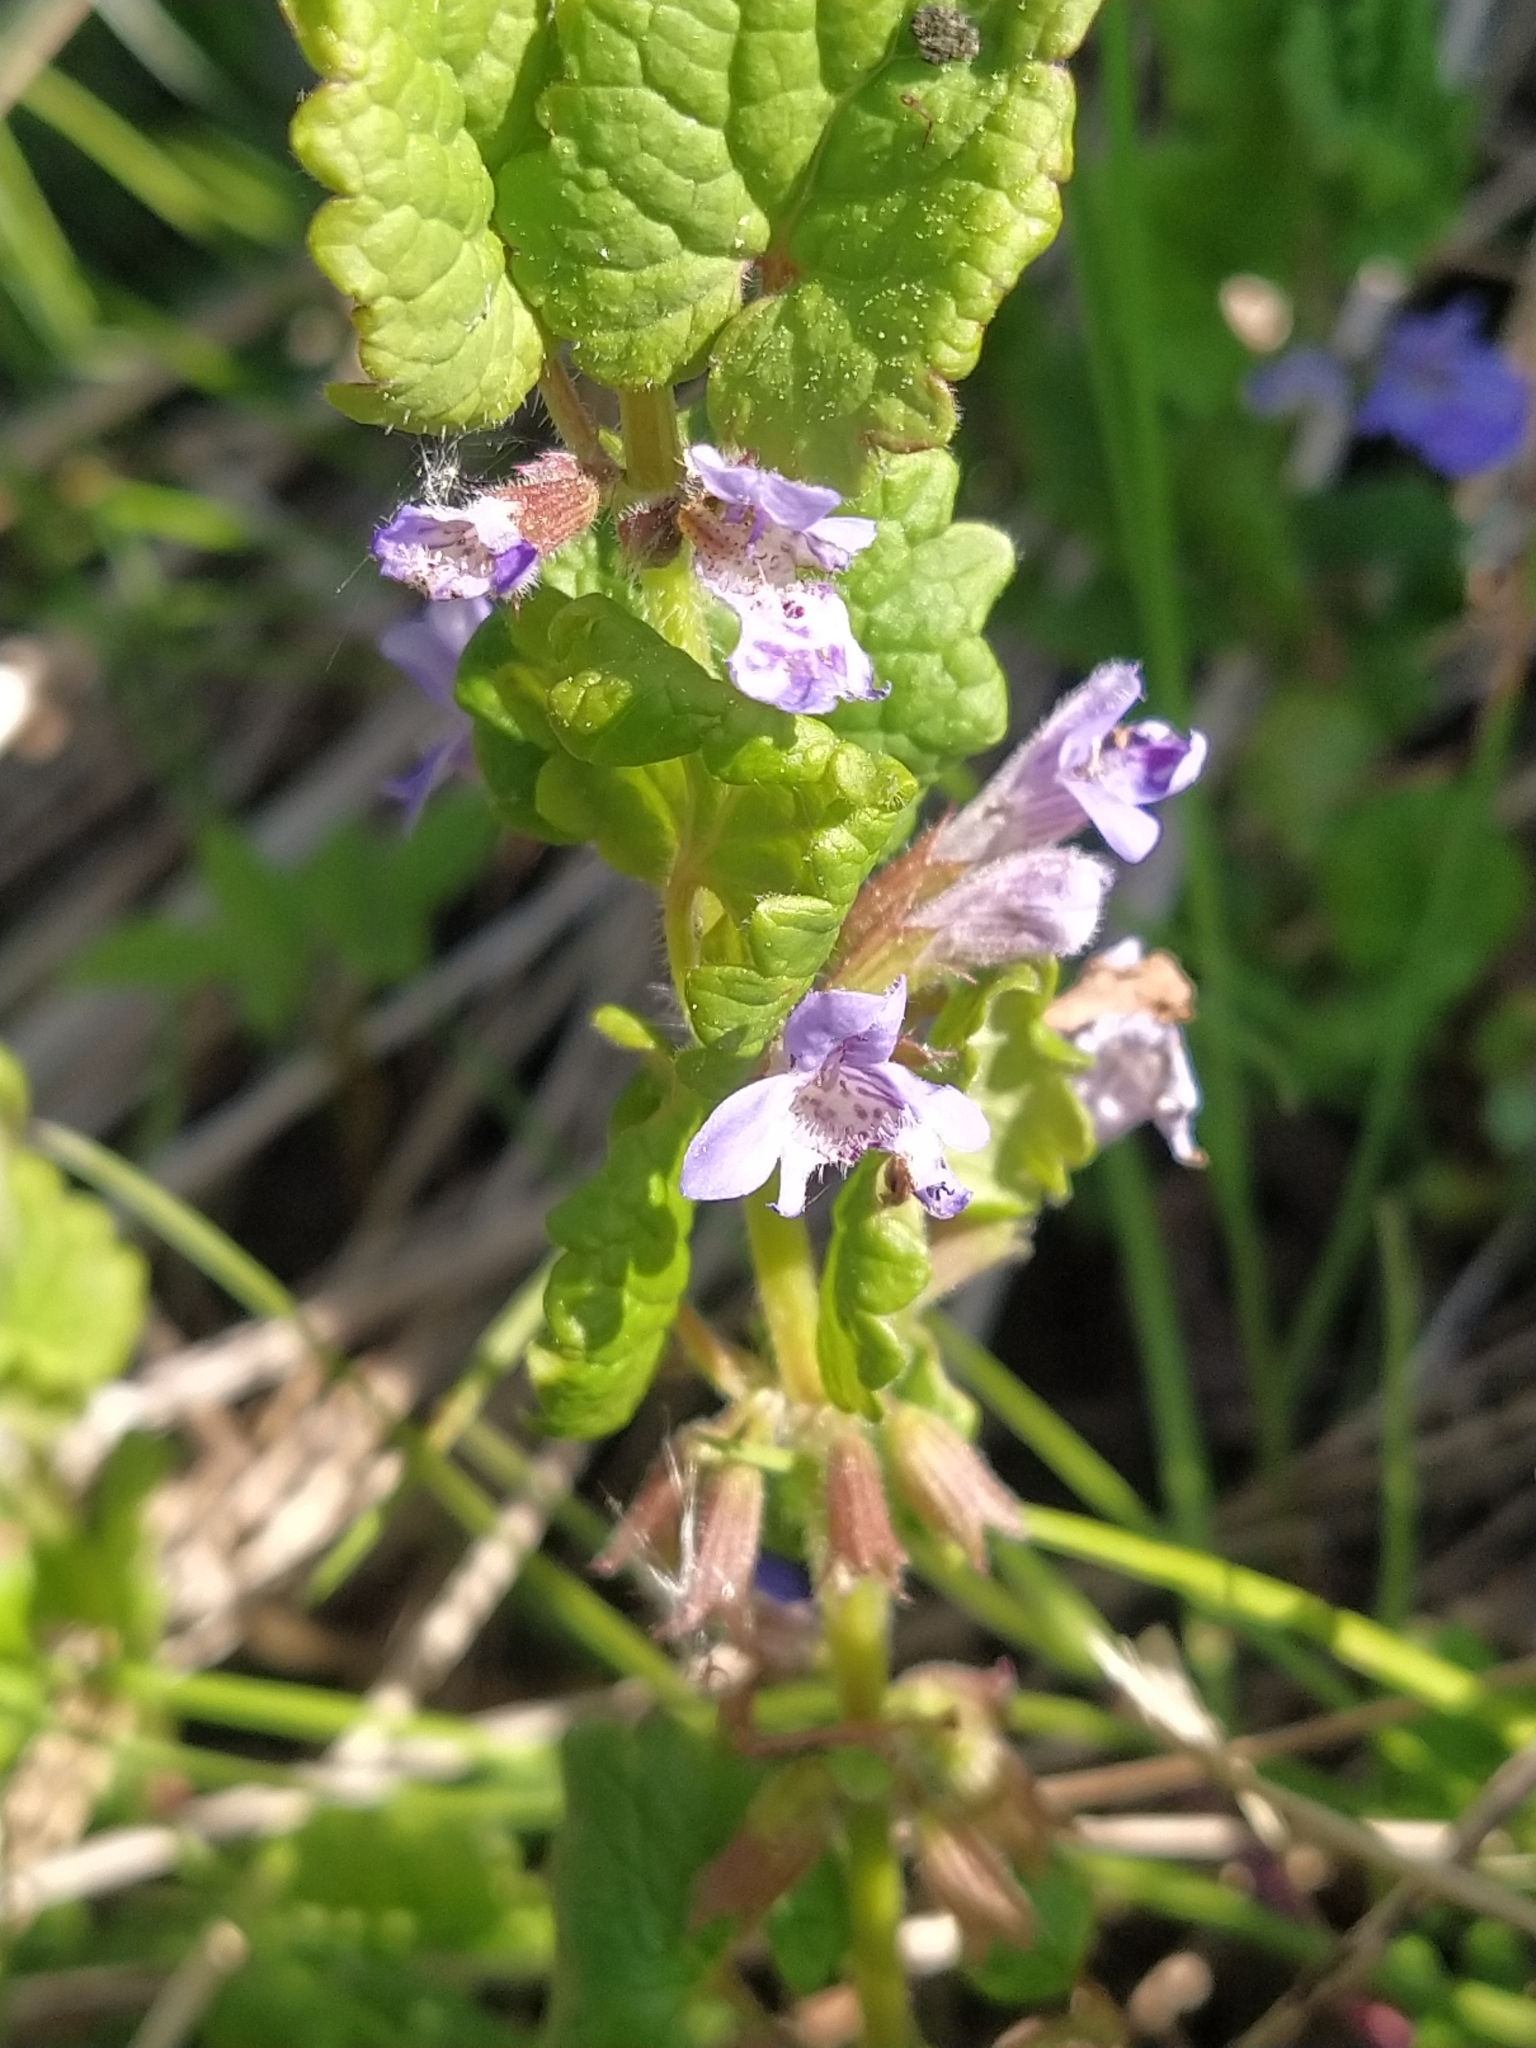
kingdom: Plantae
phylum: Tracheophyta
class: Magnoliopsida
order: Lamiales
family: Lamiaceae
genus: Glechoma
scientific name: Glechoma hederacea
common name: Ground ivy
